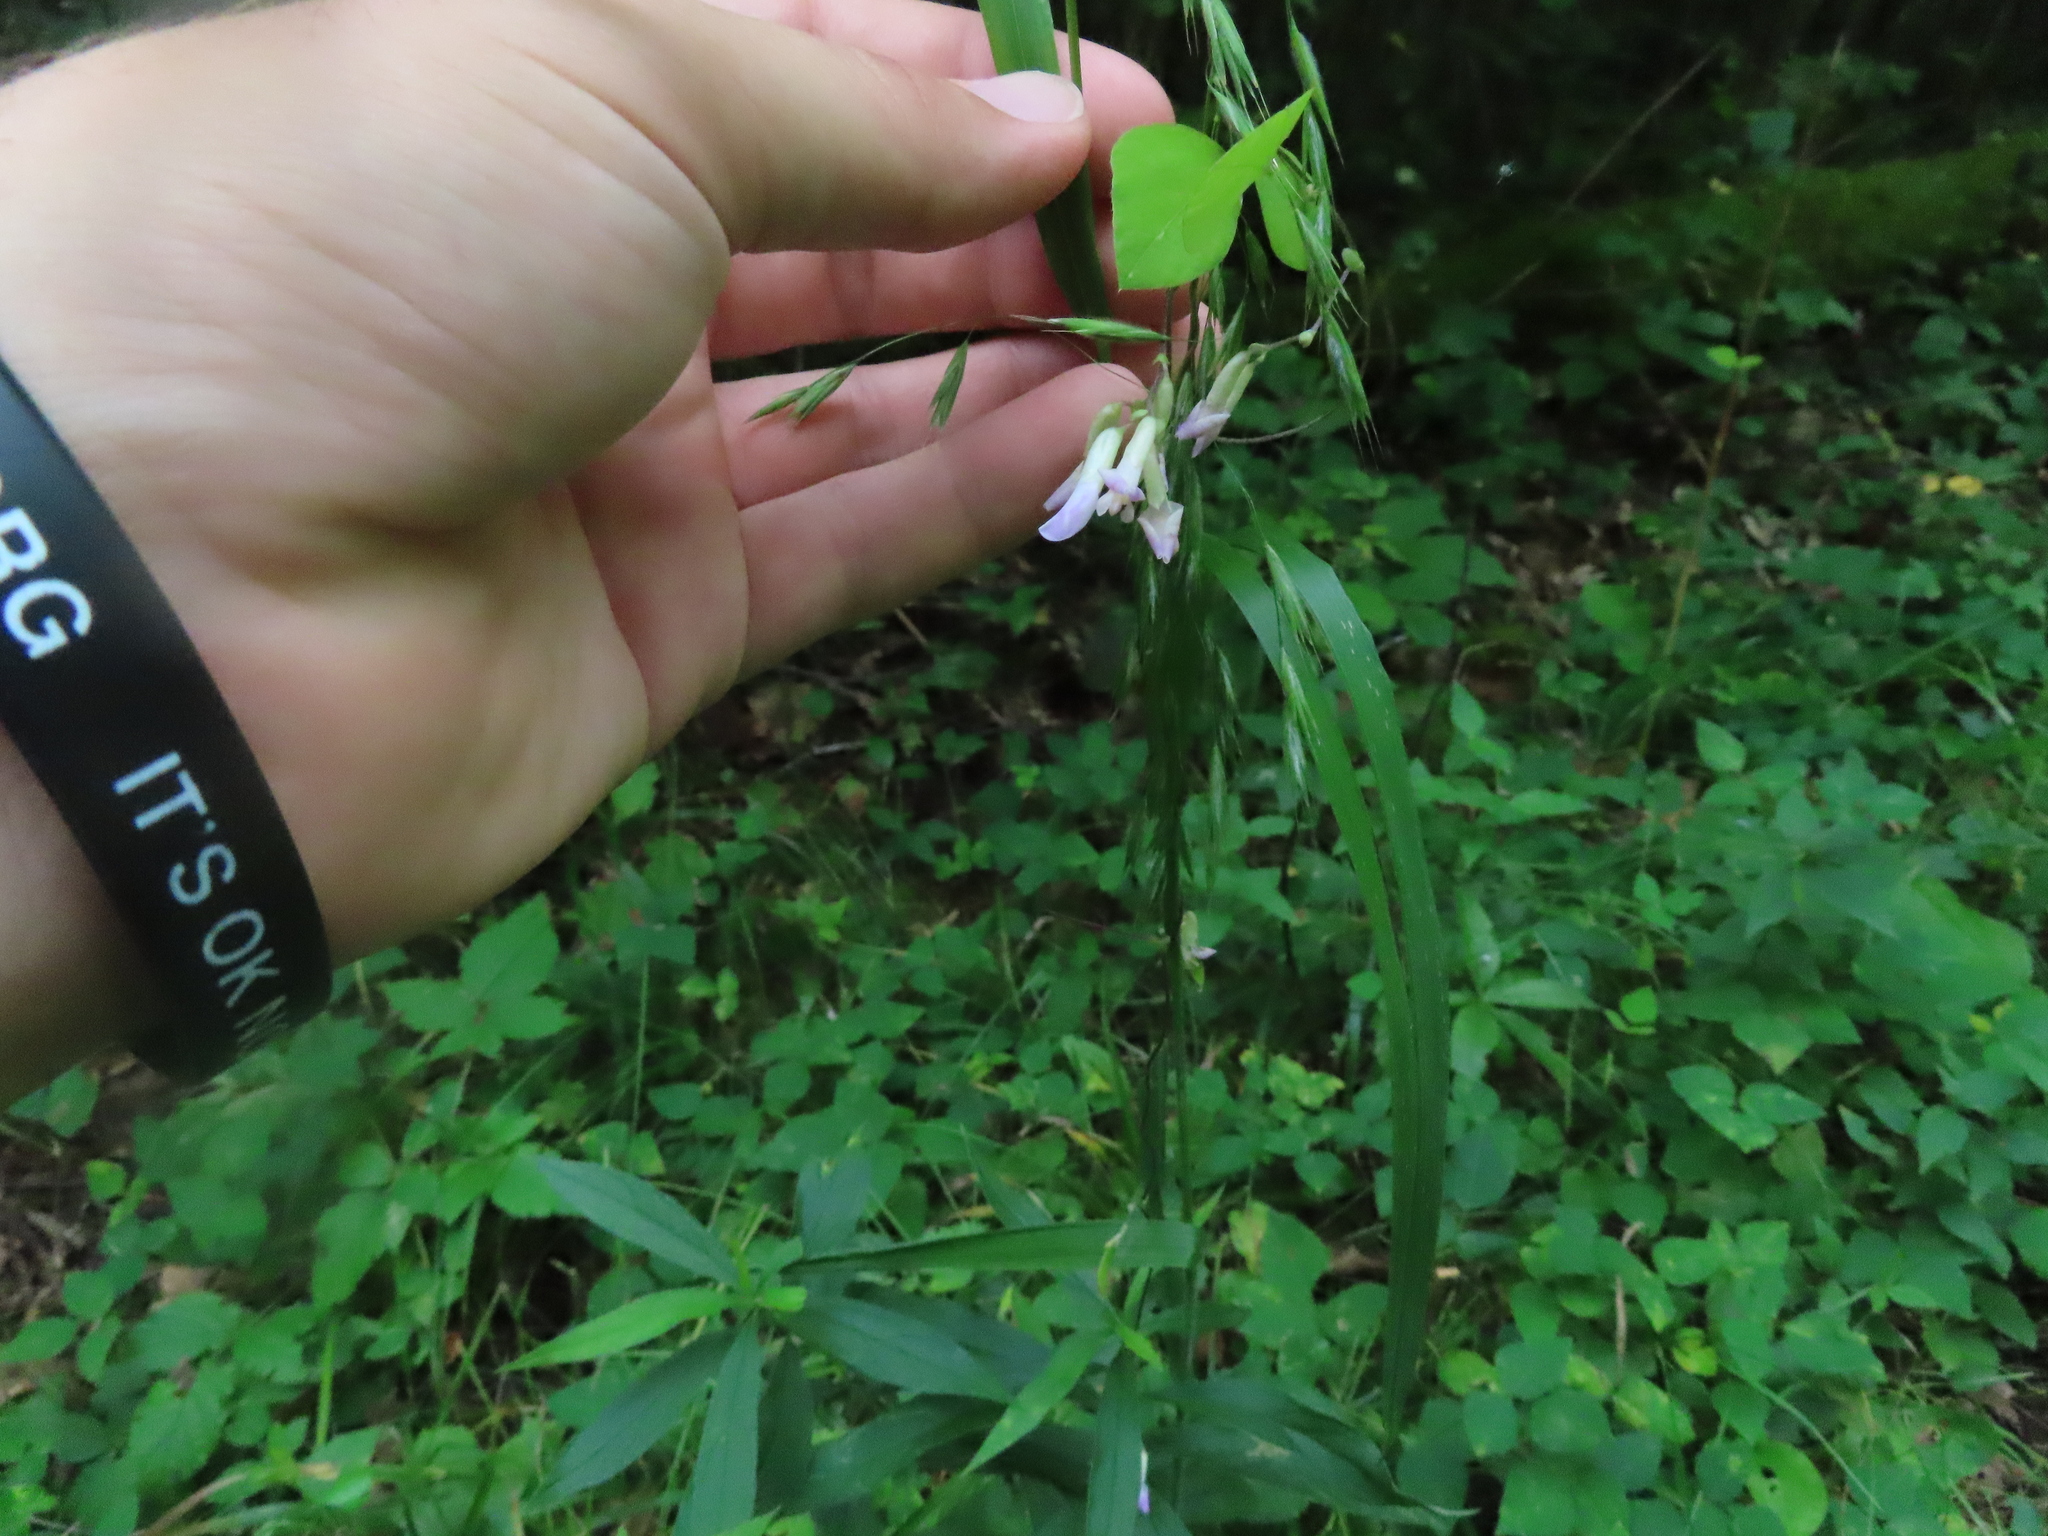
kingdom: Plantae
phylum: Tracheophyta
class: Magnoliopsida
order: Fabales
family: Fabaceae
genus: Amphicarpaea
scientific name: Amphicarpaea bracteata
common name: American hog peanut
